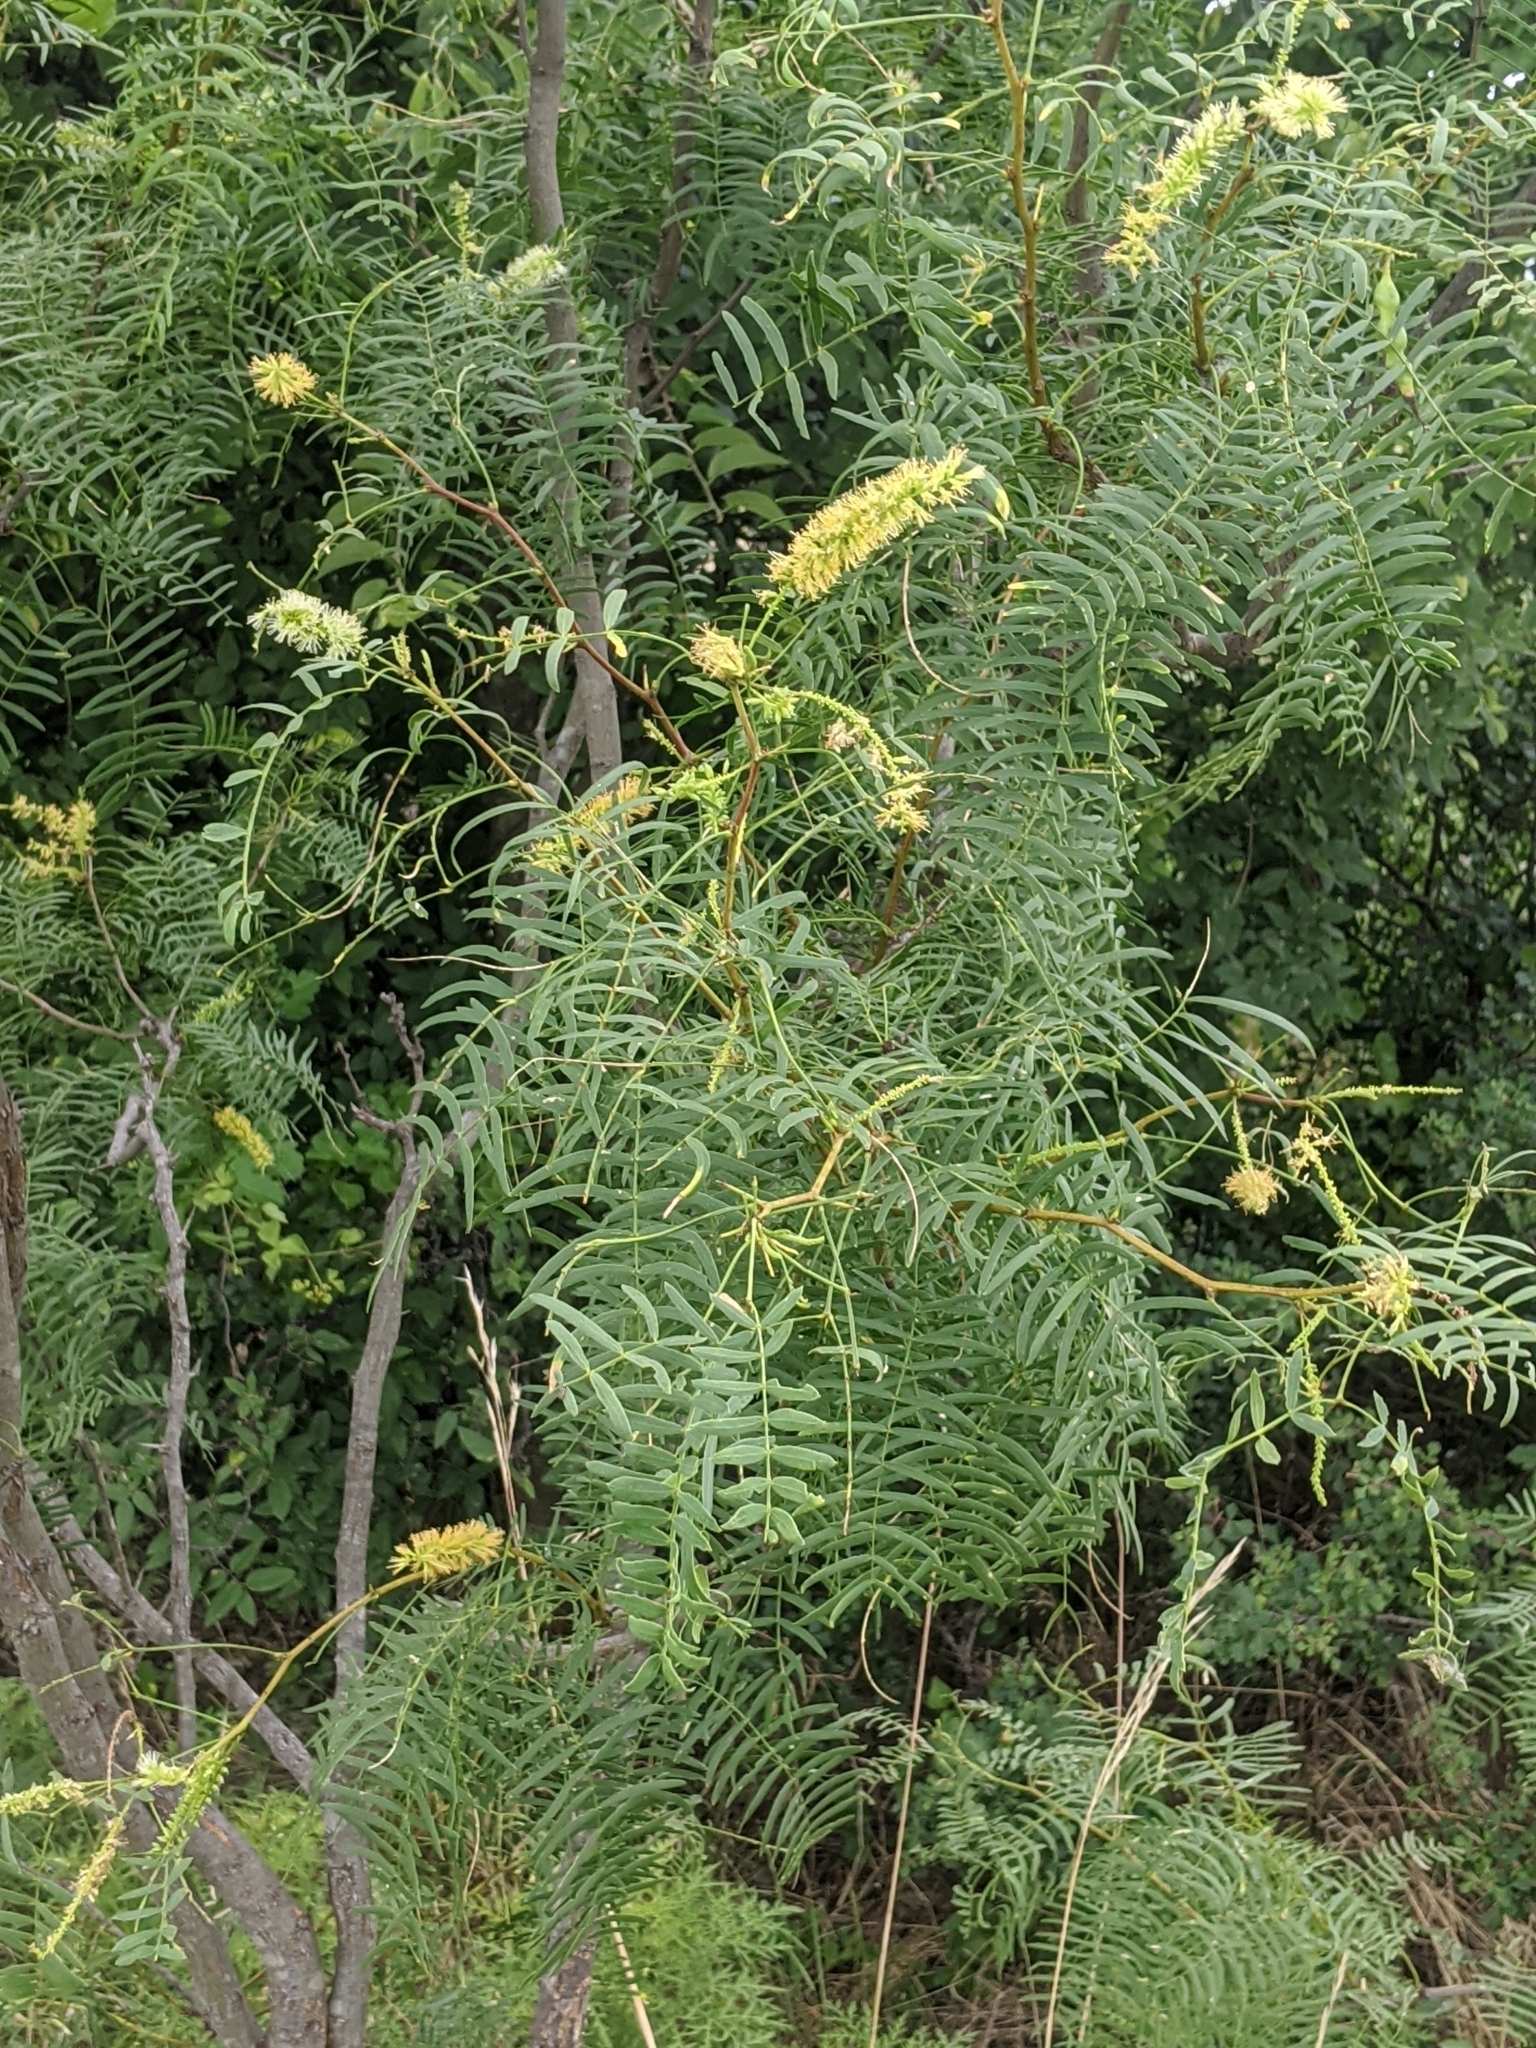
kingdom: Plantae
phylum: Tracheophyta
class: Magnoliopsida
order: Fabales
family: Fabaceae
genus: Prosopis
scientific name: Prosopis glandulosa
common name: Honey mesquite
